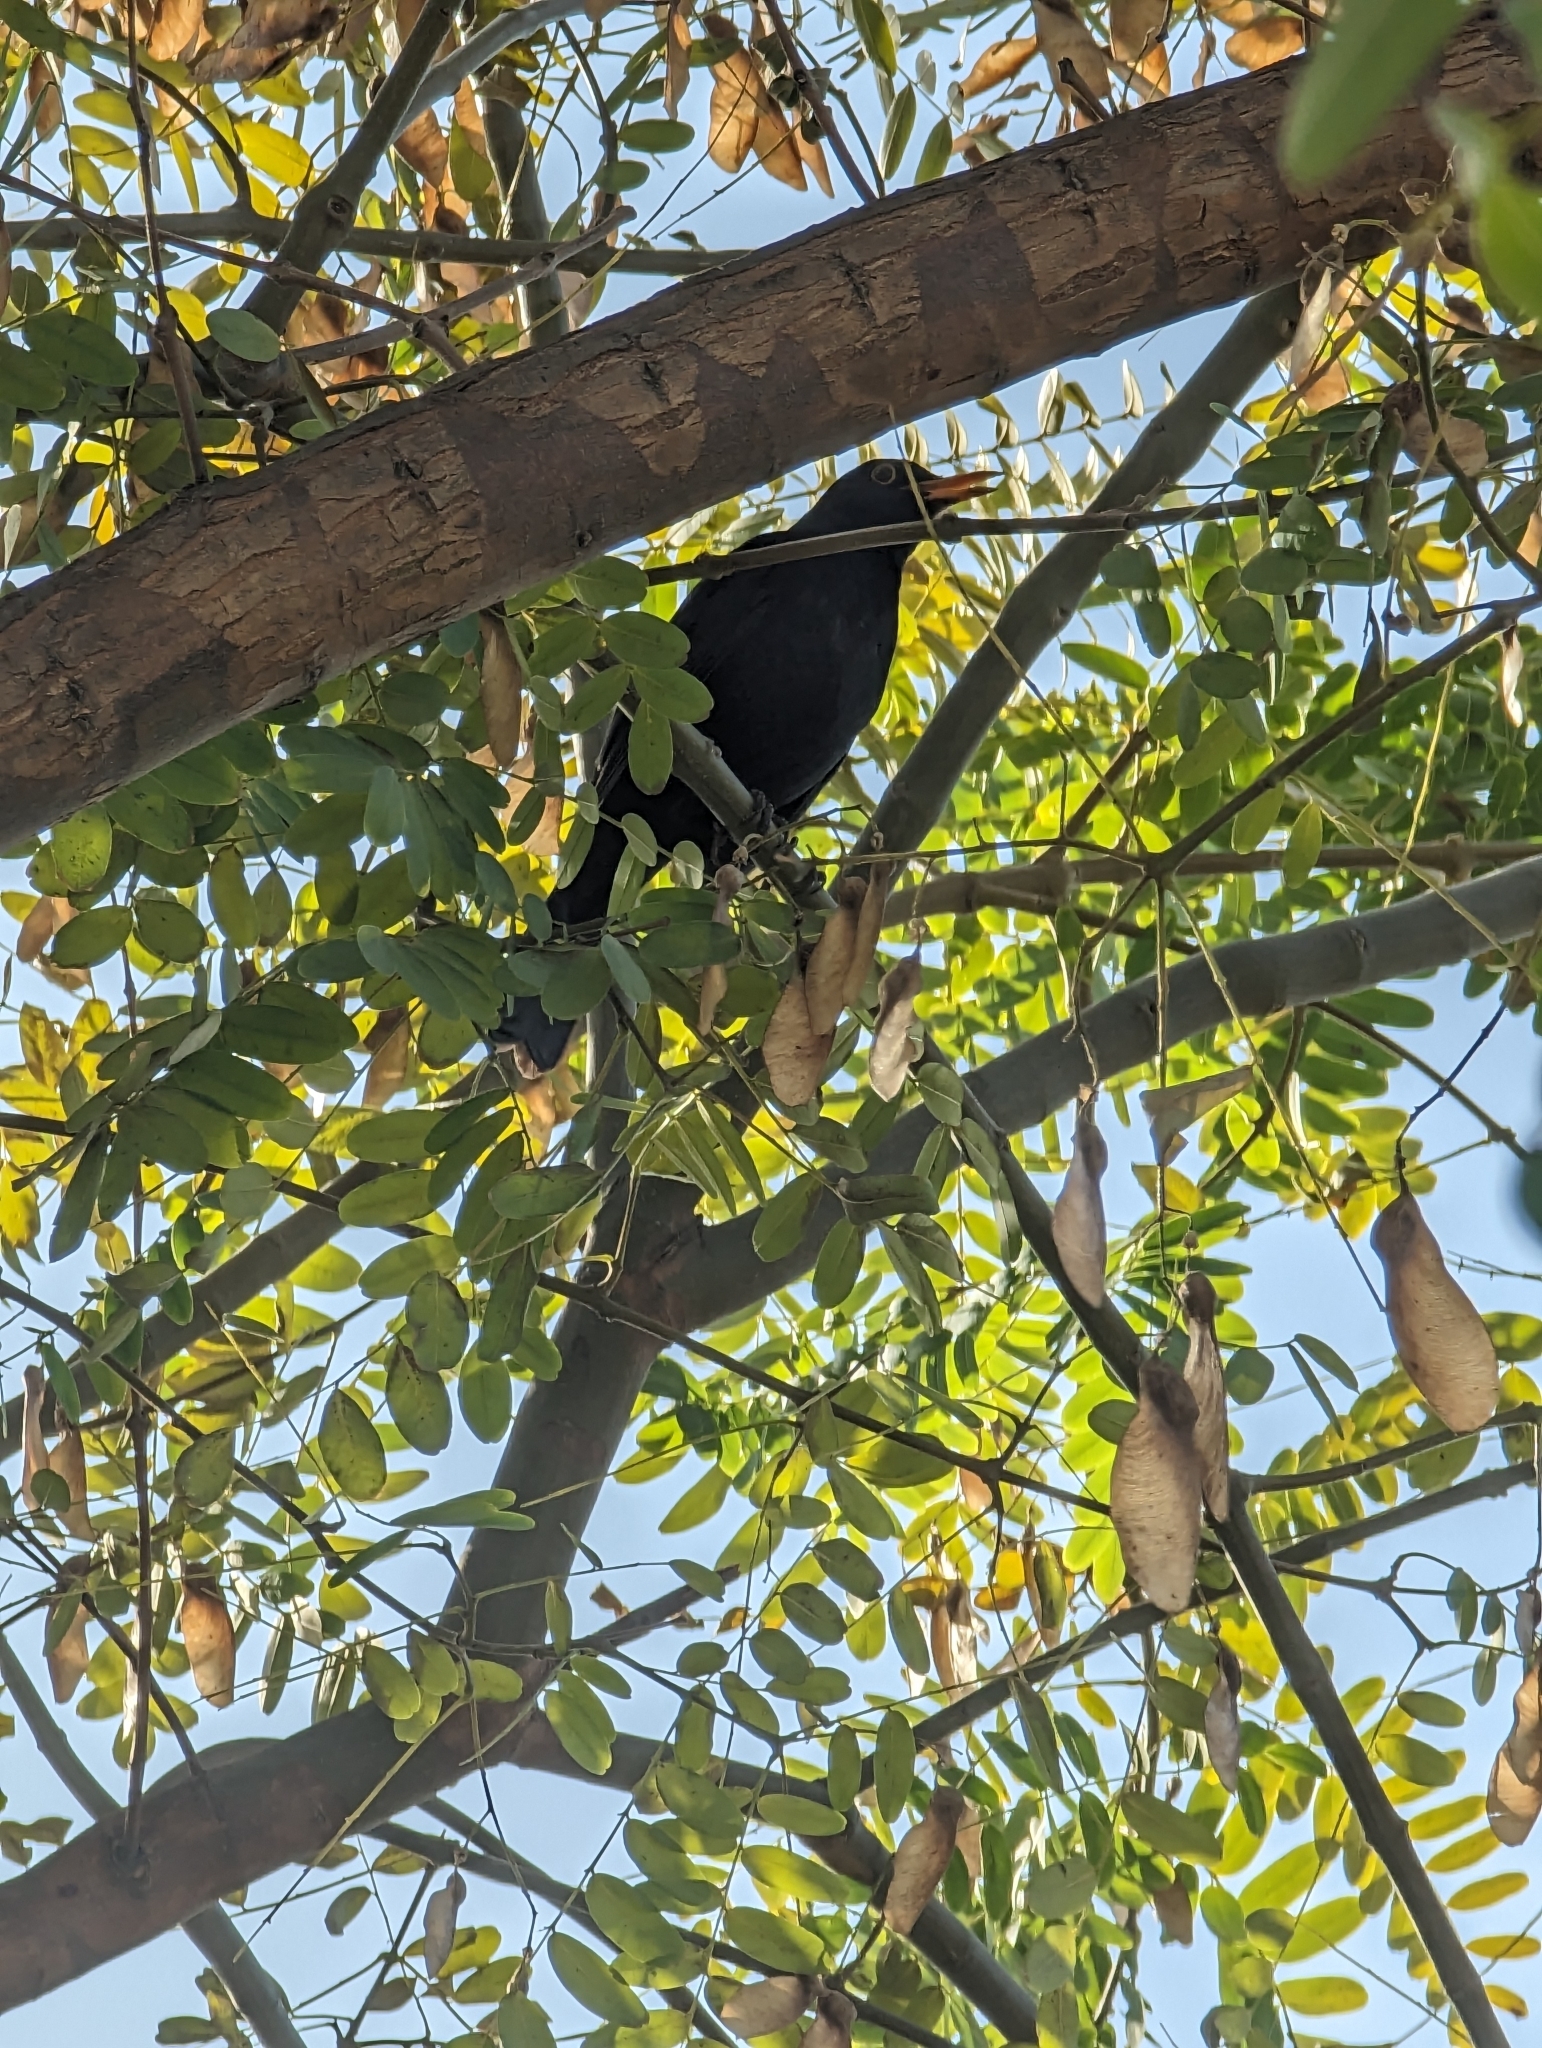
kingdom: Animalia
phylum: Chordata
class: Aves
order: Passeriformes
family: Turdidae
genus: Turdus
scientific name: Turdus merula
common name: Common blackbird
